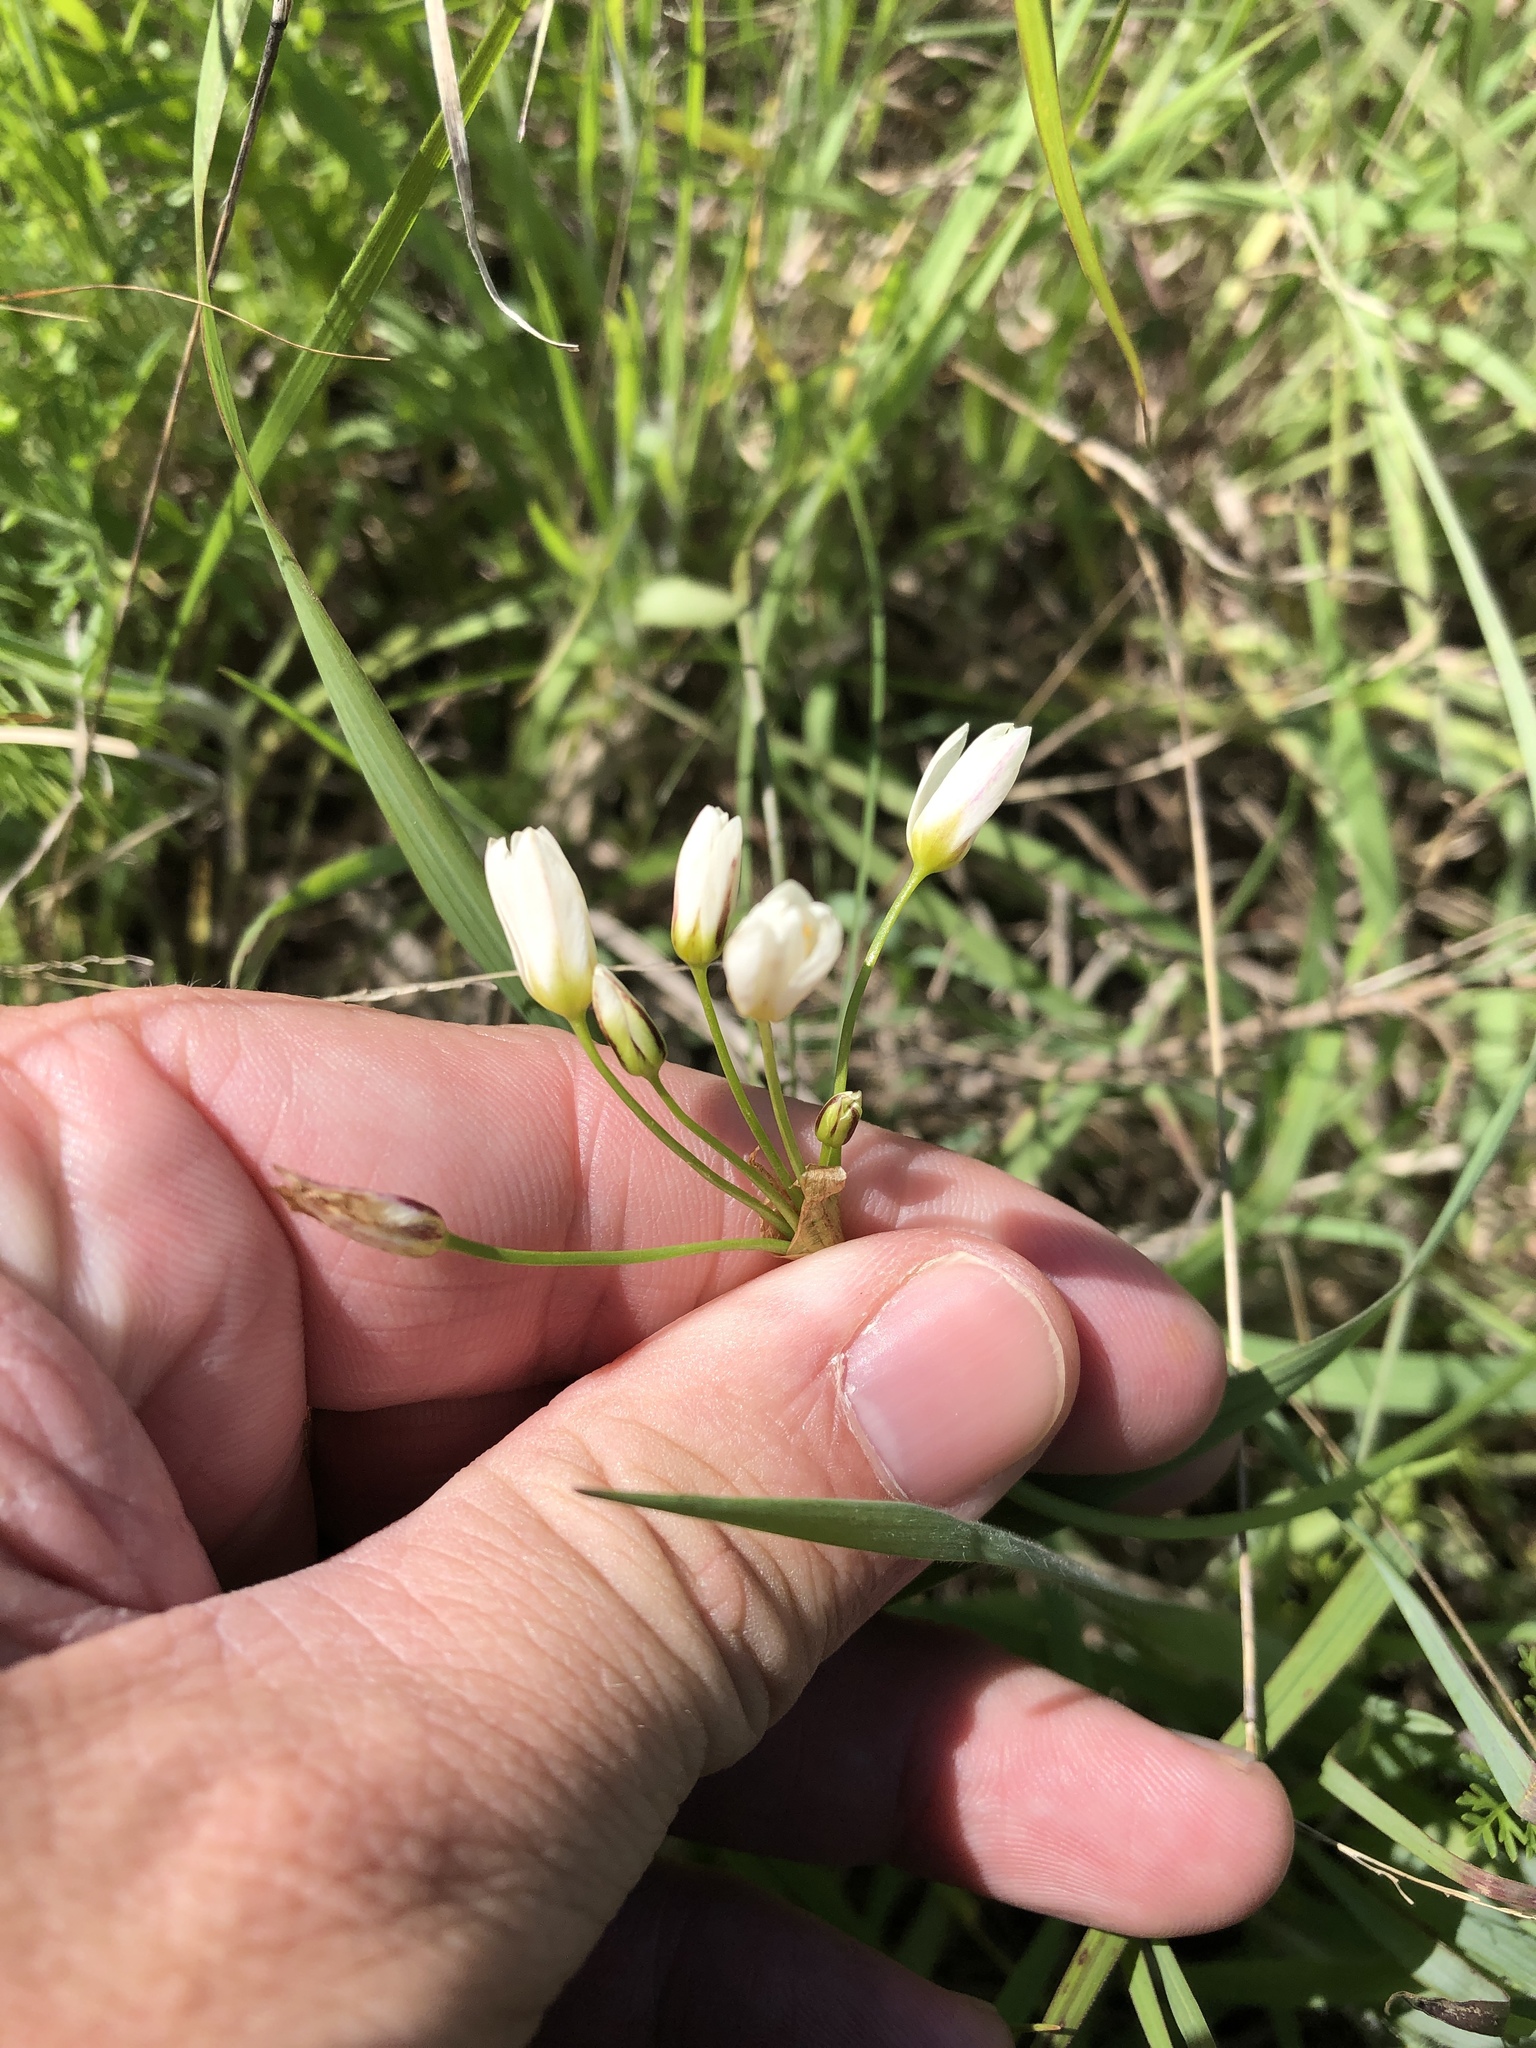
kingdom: Plantae
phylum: Tracheophyta
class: Liliopsida
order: Asparagales
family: Amaryllidaceae
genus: Nothoscordum
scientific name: Nothoscordum bivalve
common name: Crow-poison
